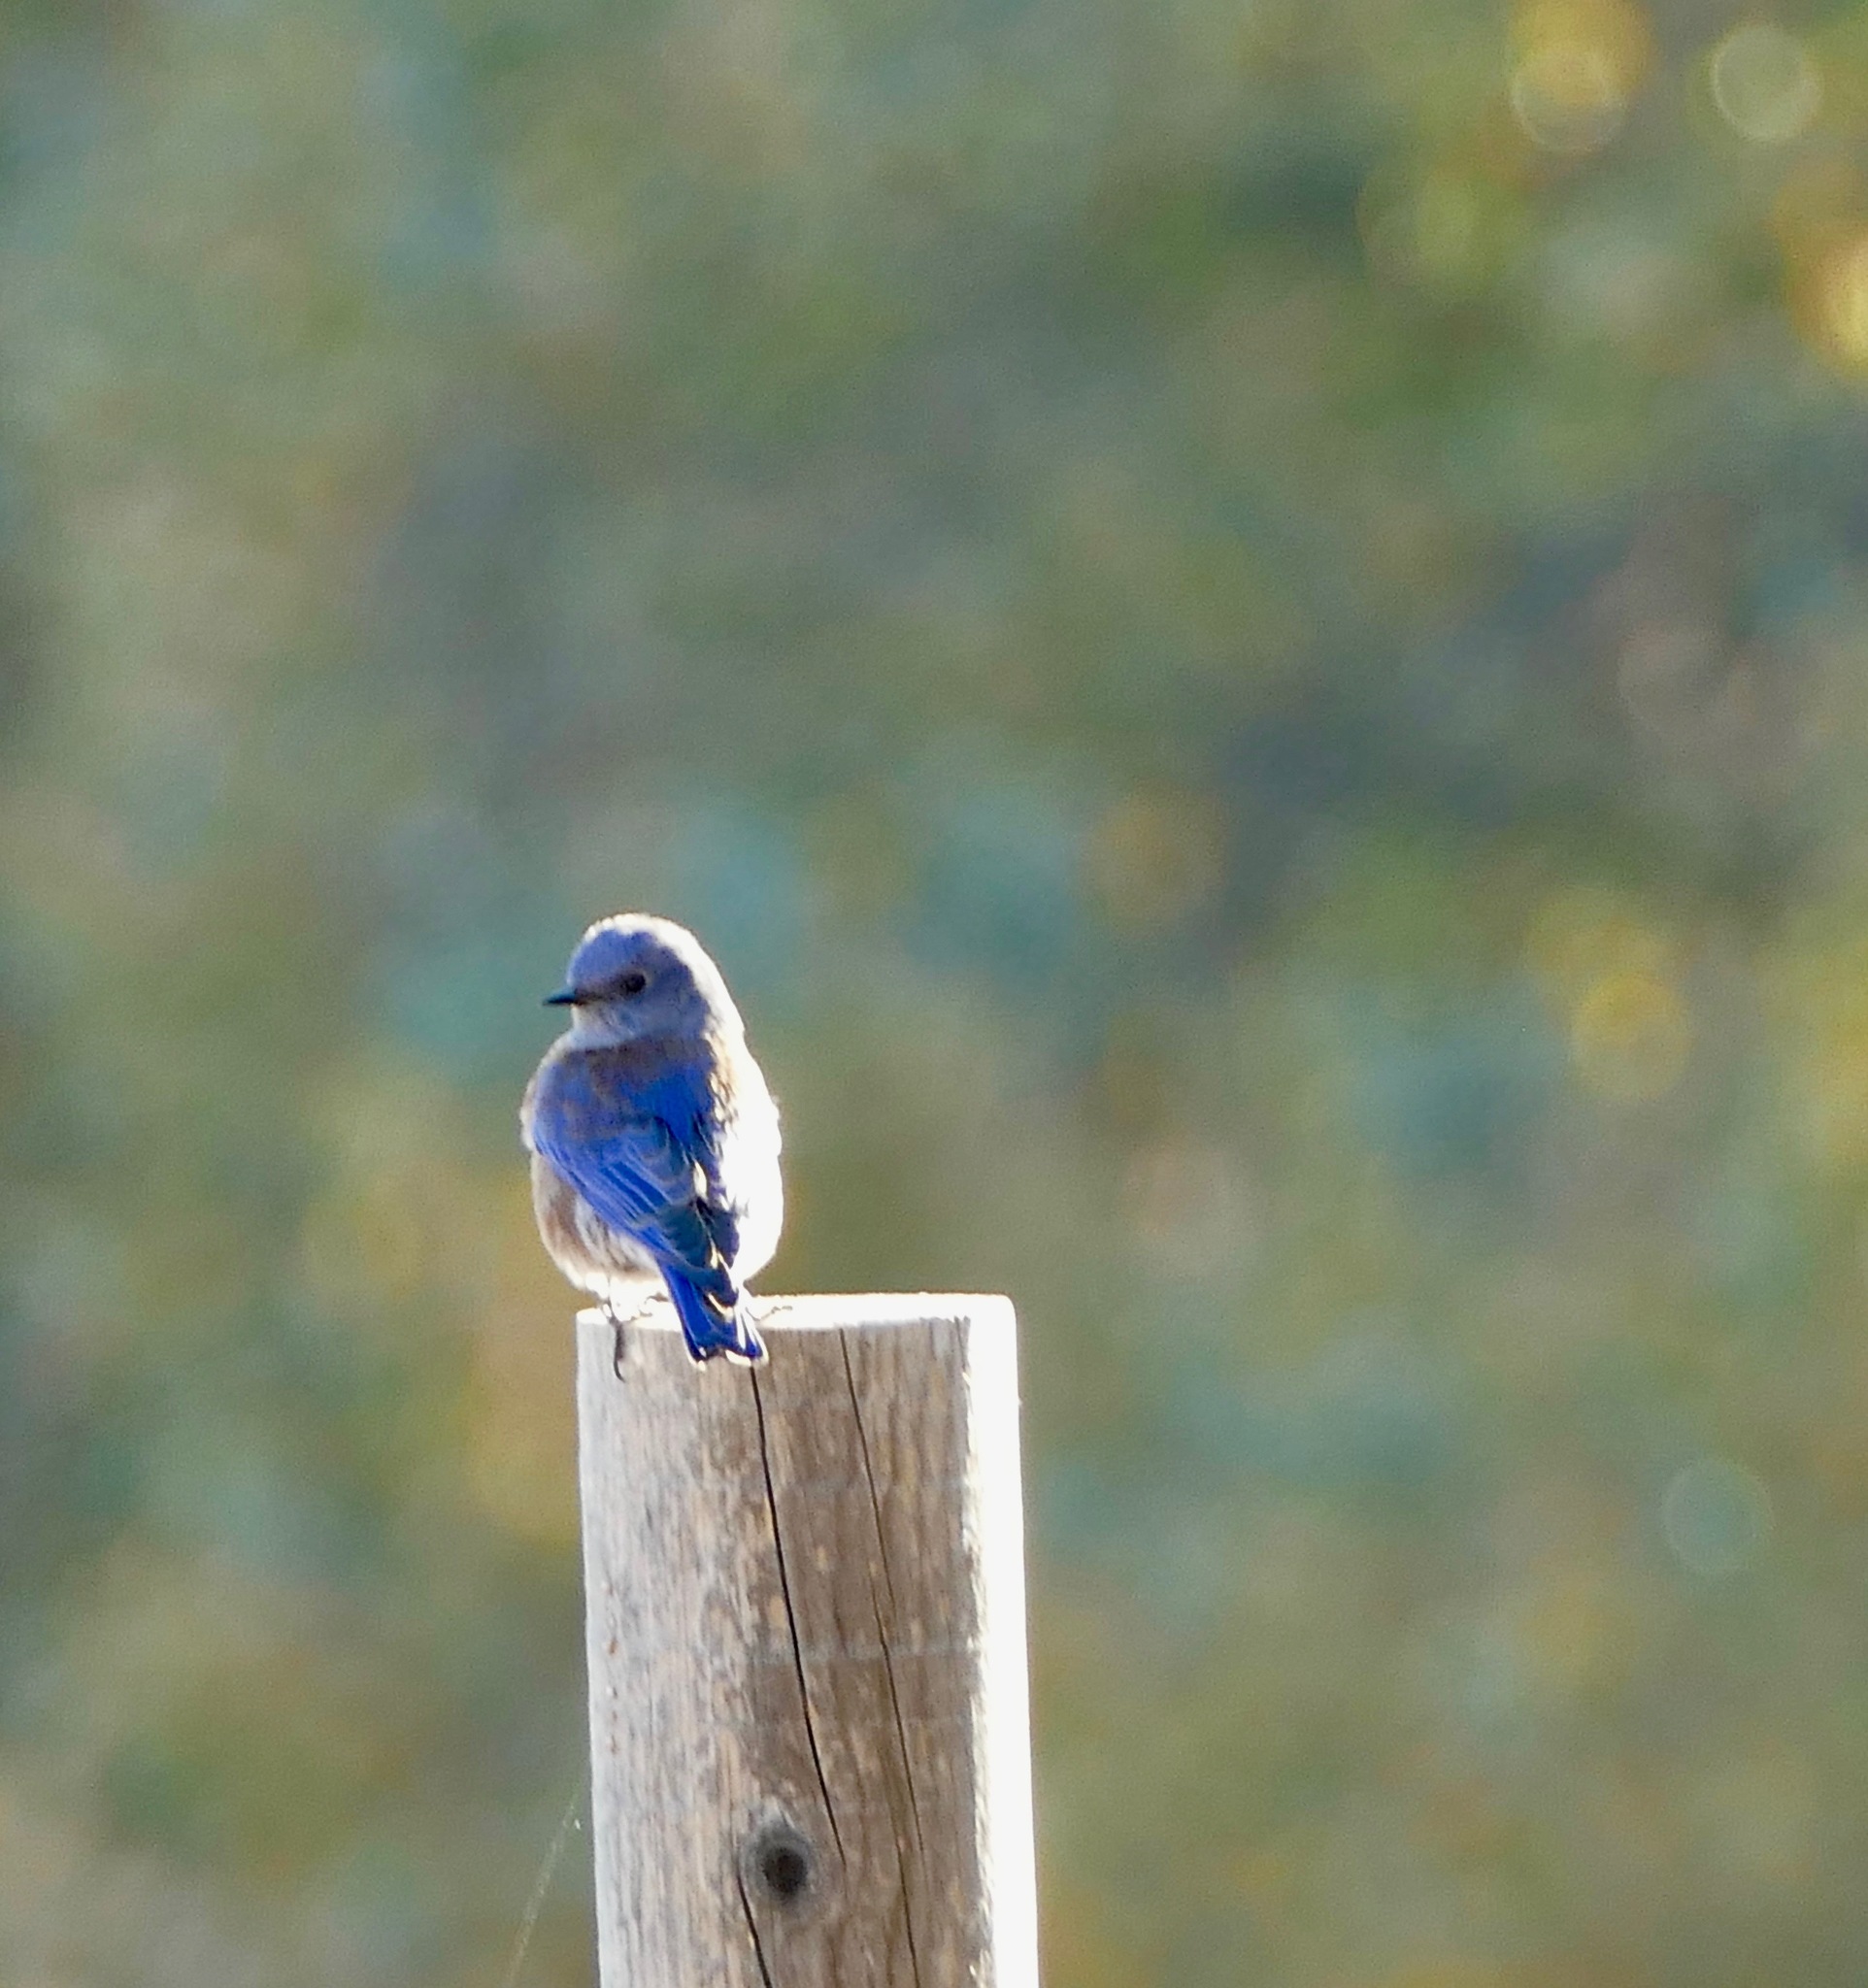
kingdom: Animalia
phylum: Chordata
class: Aves
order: Passeriformes
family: Turdidae
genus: Sialia
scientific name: Sialia mexicana
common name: Western bluebird
